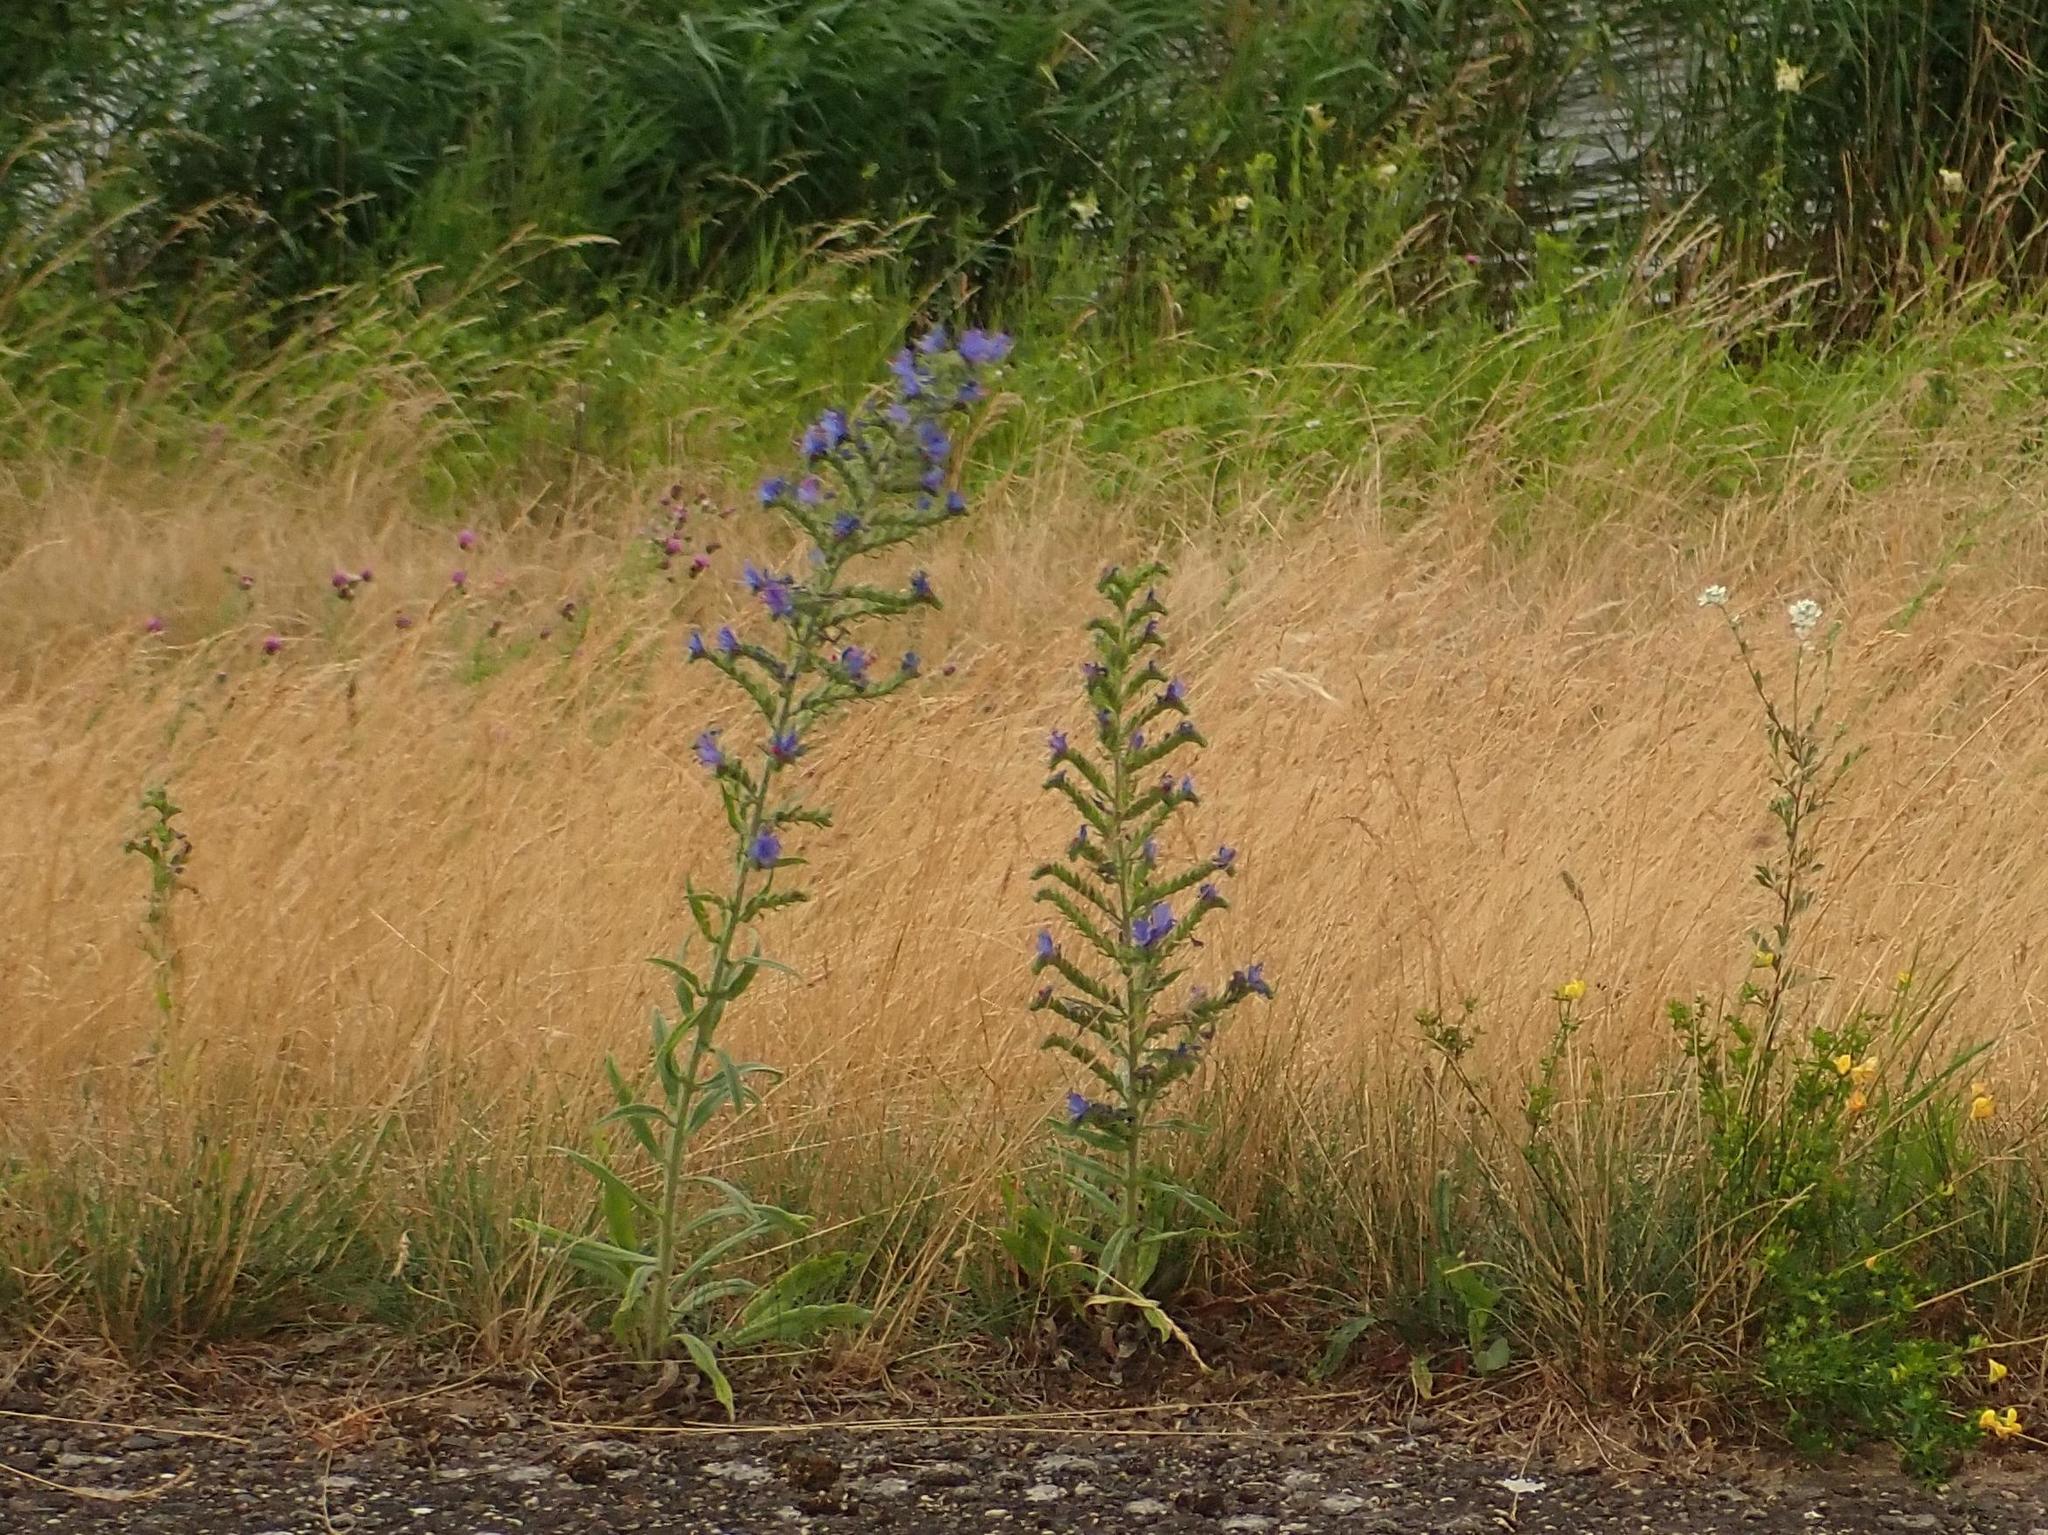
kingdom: Plantae
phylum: Tracheophyta
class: Magnoliopsida
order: Boraginales
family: Boraginaceae
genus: Echium
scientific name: Echium vulgare
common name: Common viper's bugloss
